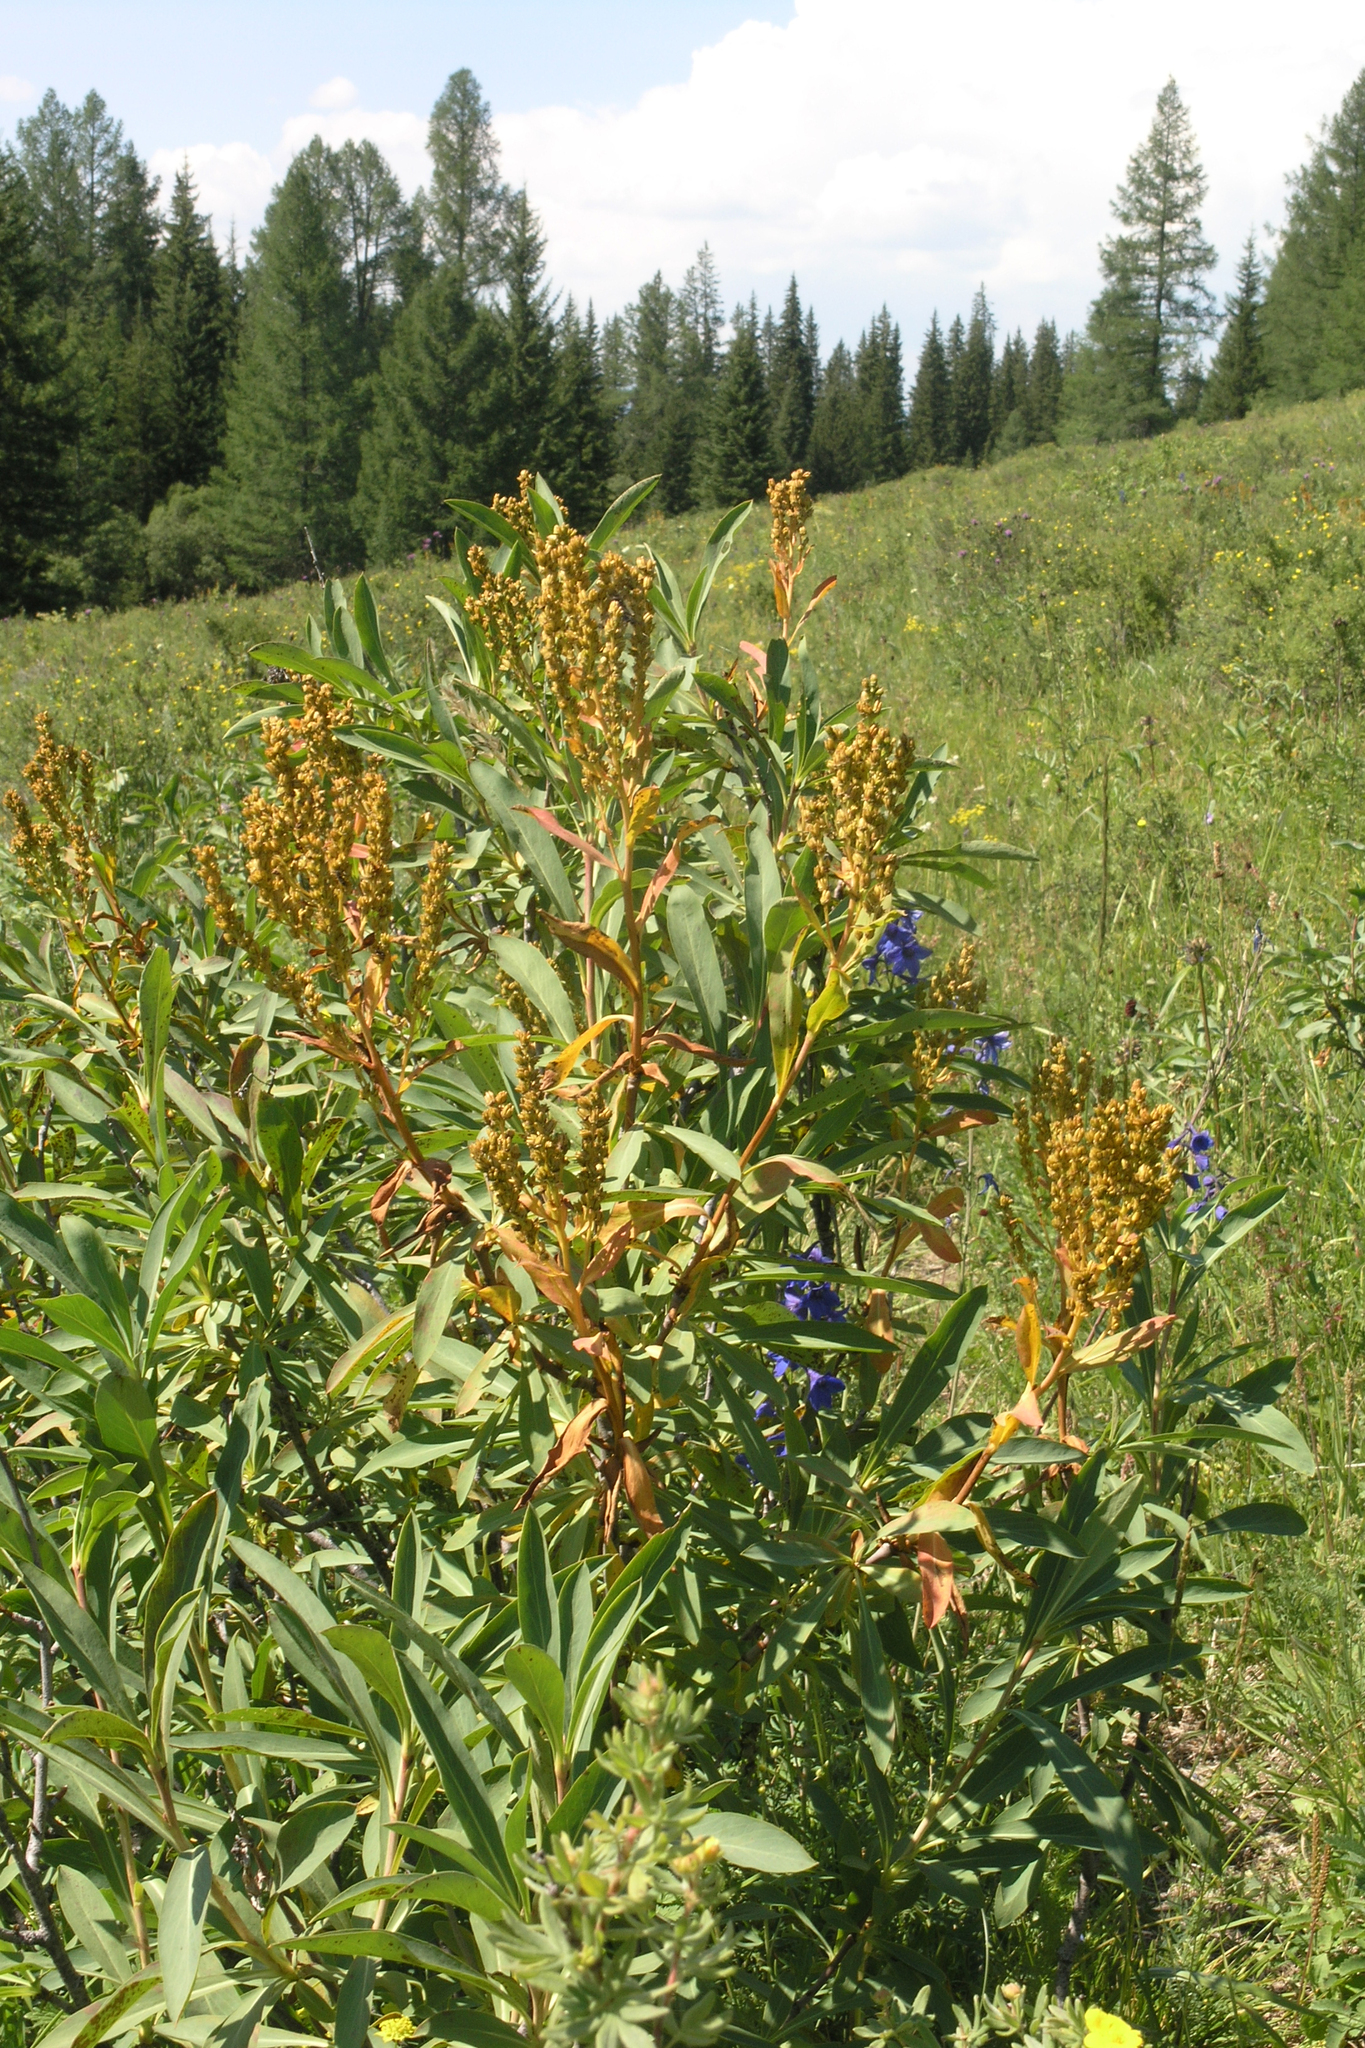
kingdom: Plantae
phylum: Tracheophyta
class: Magnoliopsida
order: Rosales
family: Rosaceae
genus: Sibiraea
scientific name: Sibiraea laevigata
